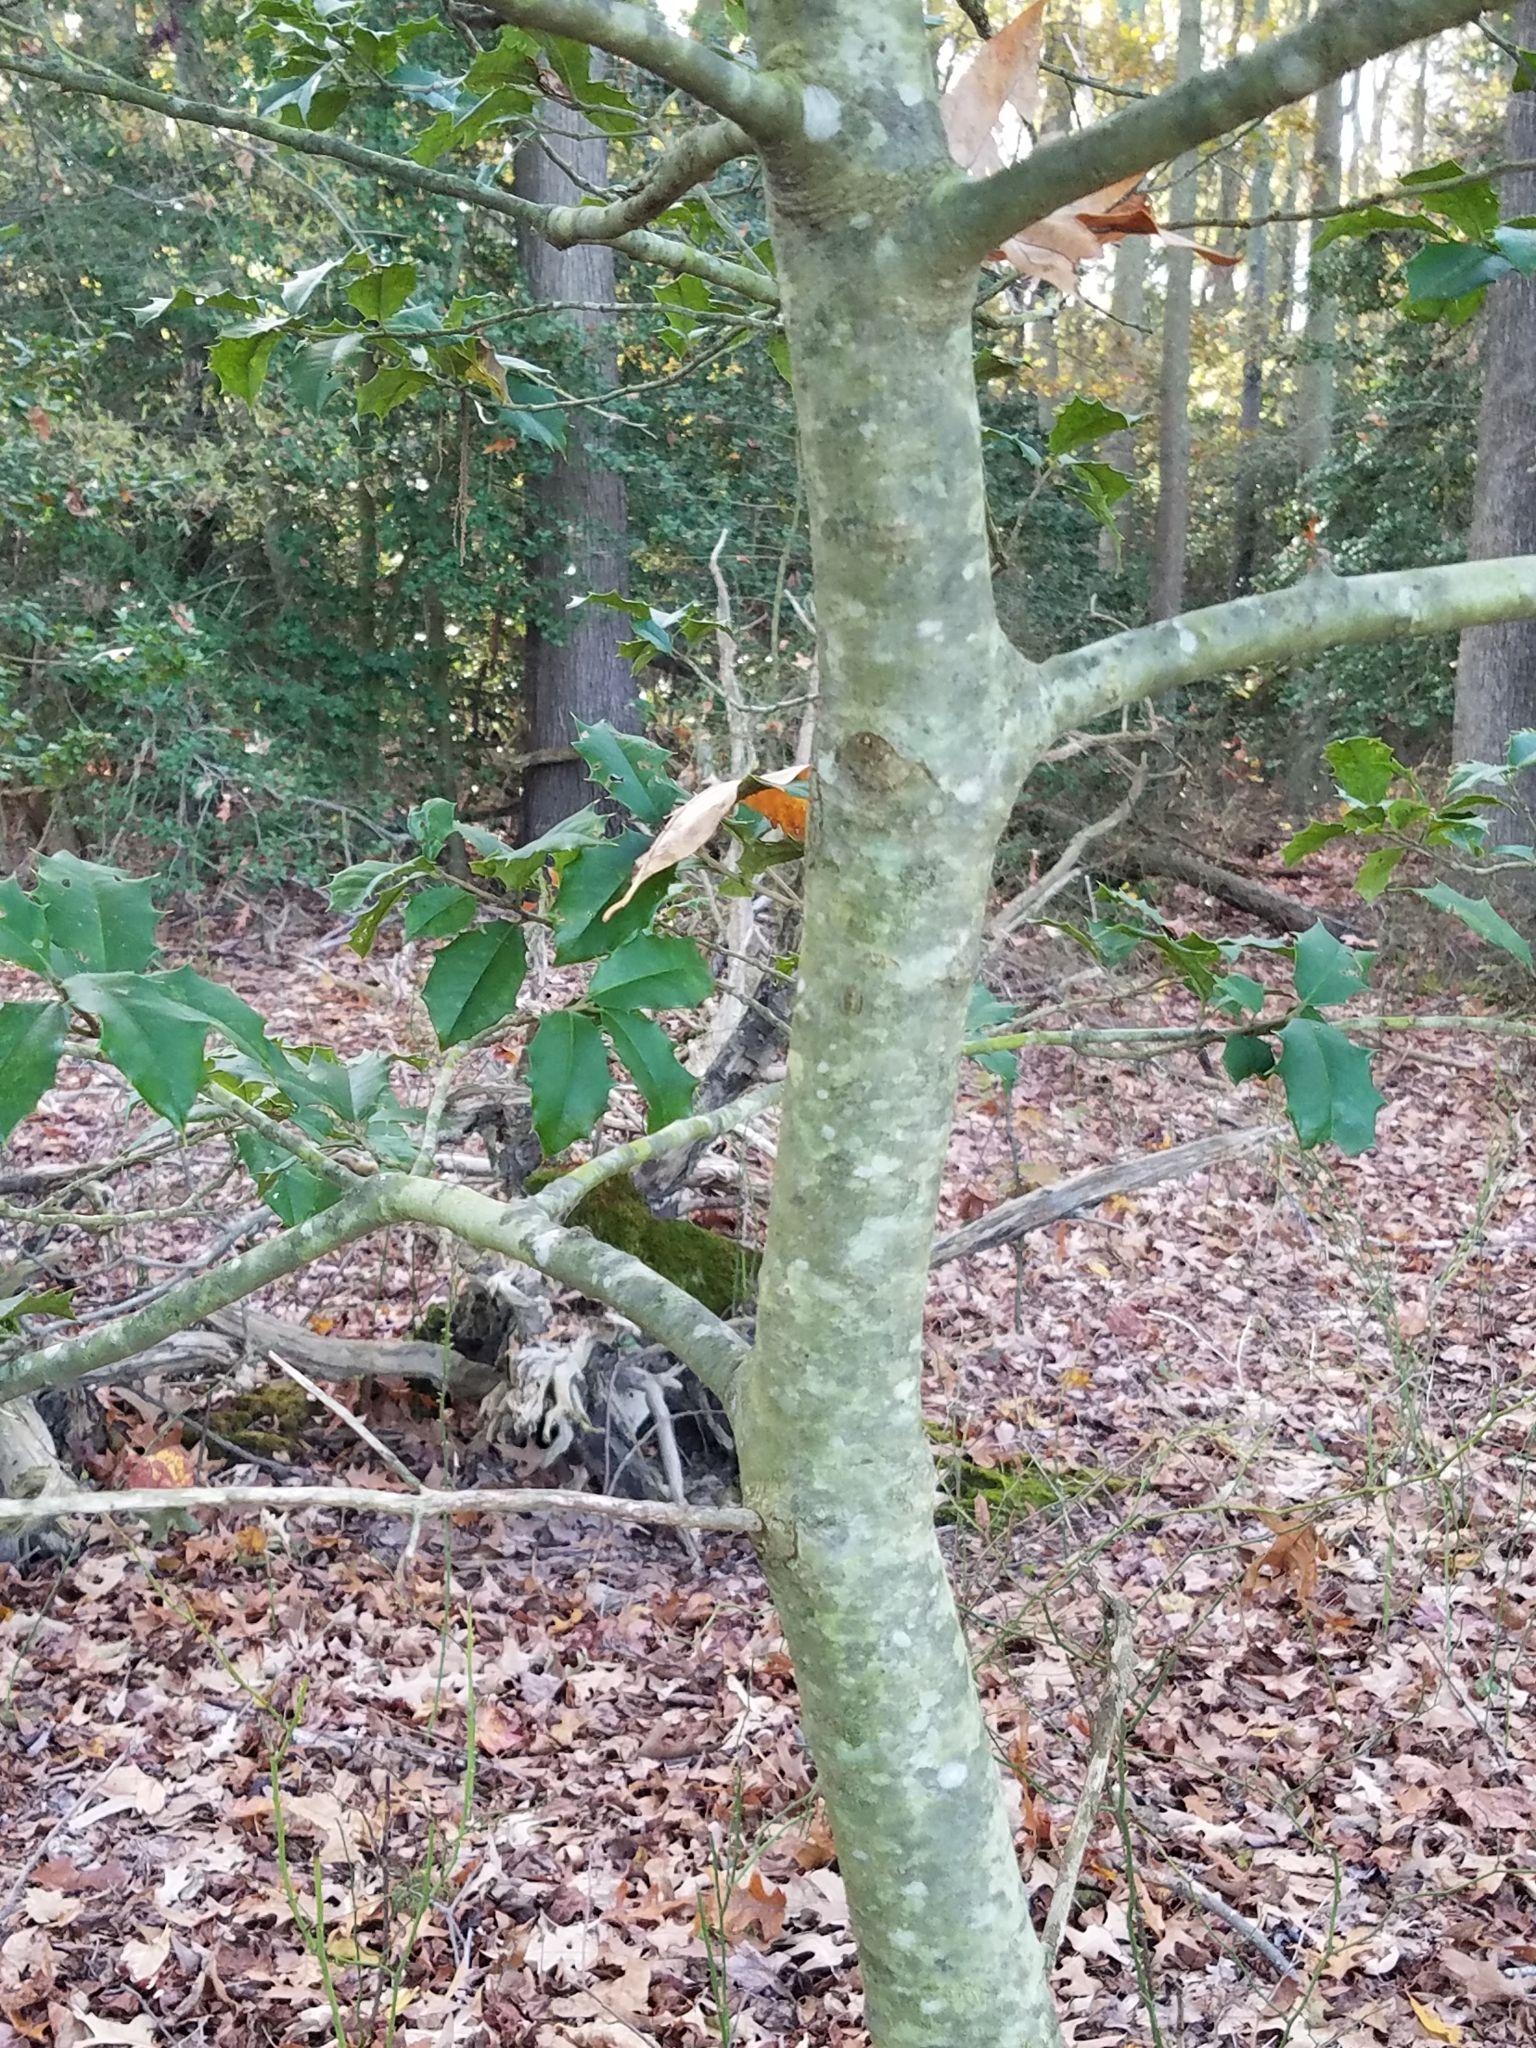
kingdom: Plantae
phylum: Tracheophyta
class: Magnoliopsida
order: Aquifoliales
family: Aquifoliaceae
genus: Ilex
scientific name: Ilex opaca
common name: American holly
